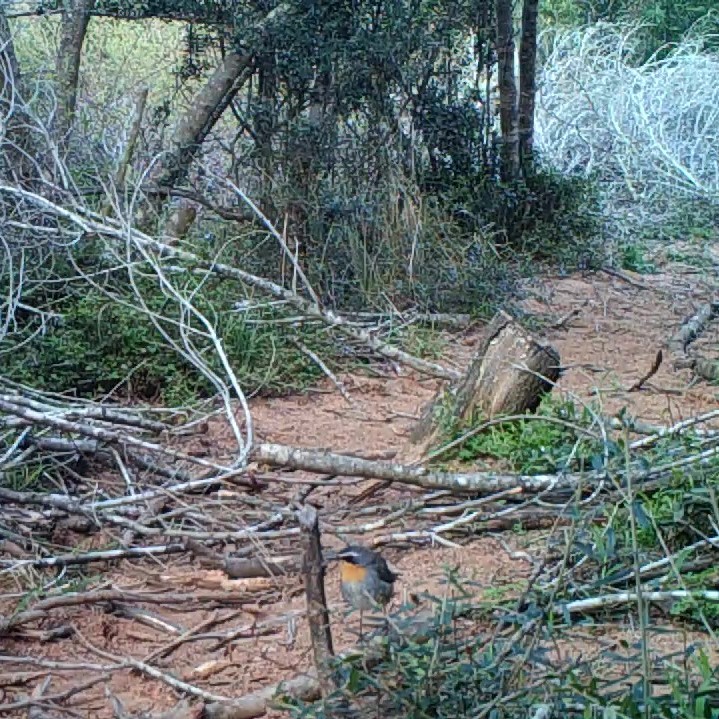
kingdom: Animalia
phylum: Chordata
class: Aves
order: Passeriformes
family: Muscicapidae
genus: Cossypha
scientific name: Cossypha caffra
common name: Cape robin-chat
